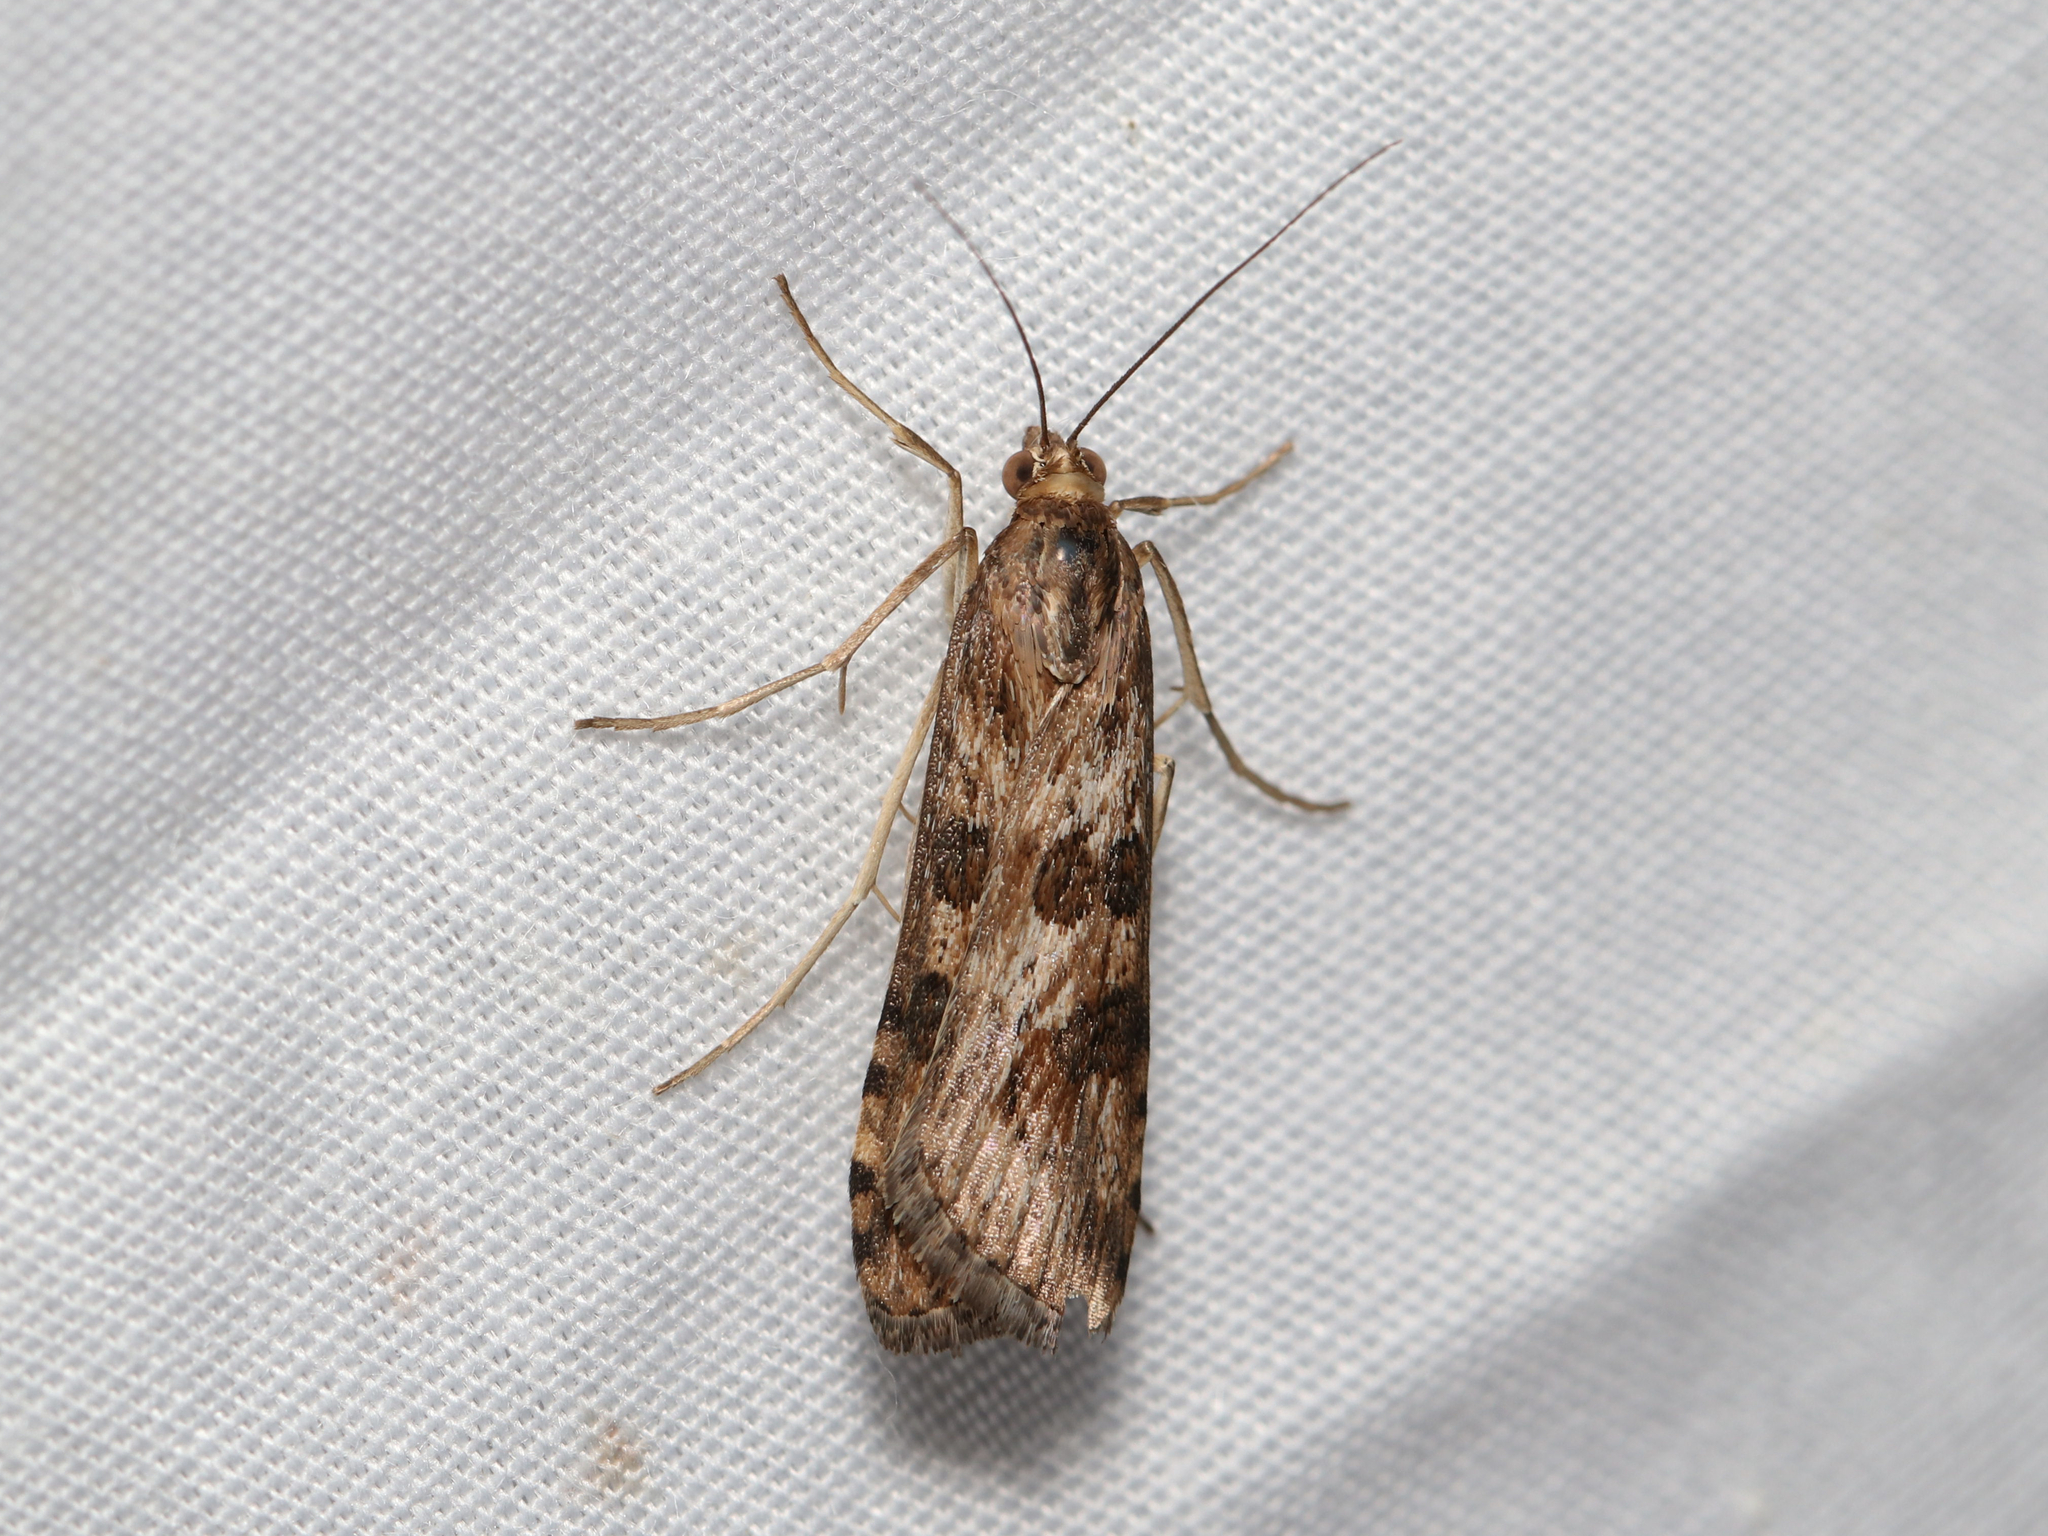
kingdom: Animalia
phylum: Arthropoda
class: Insecta
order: Lepidoptera
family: Crambidae
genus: Nomophila
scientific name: Nomophila nearctica
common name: American rush veneer
